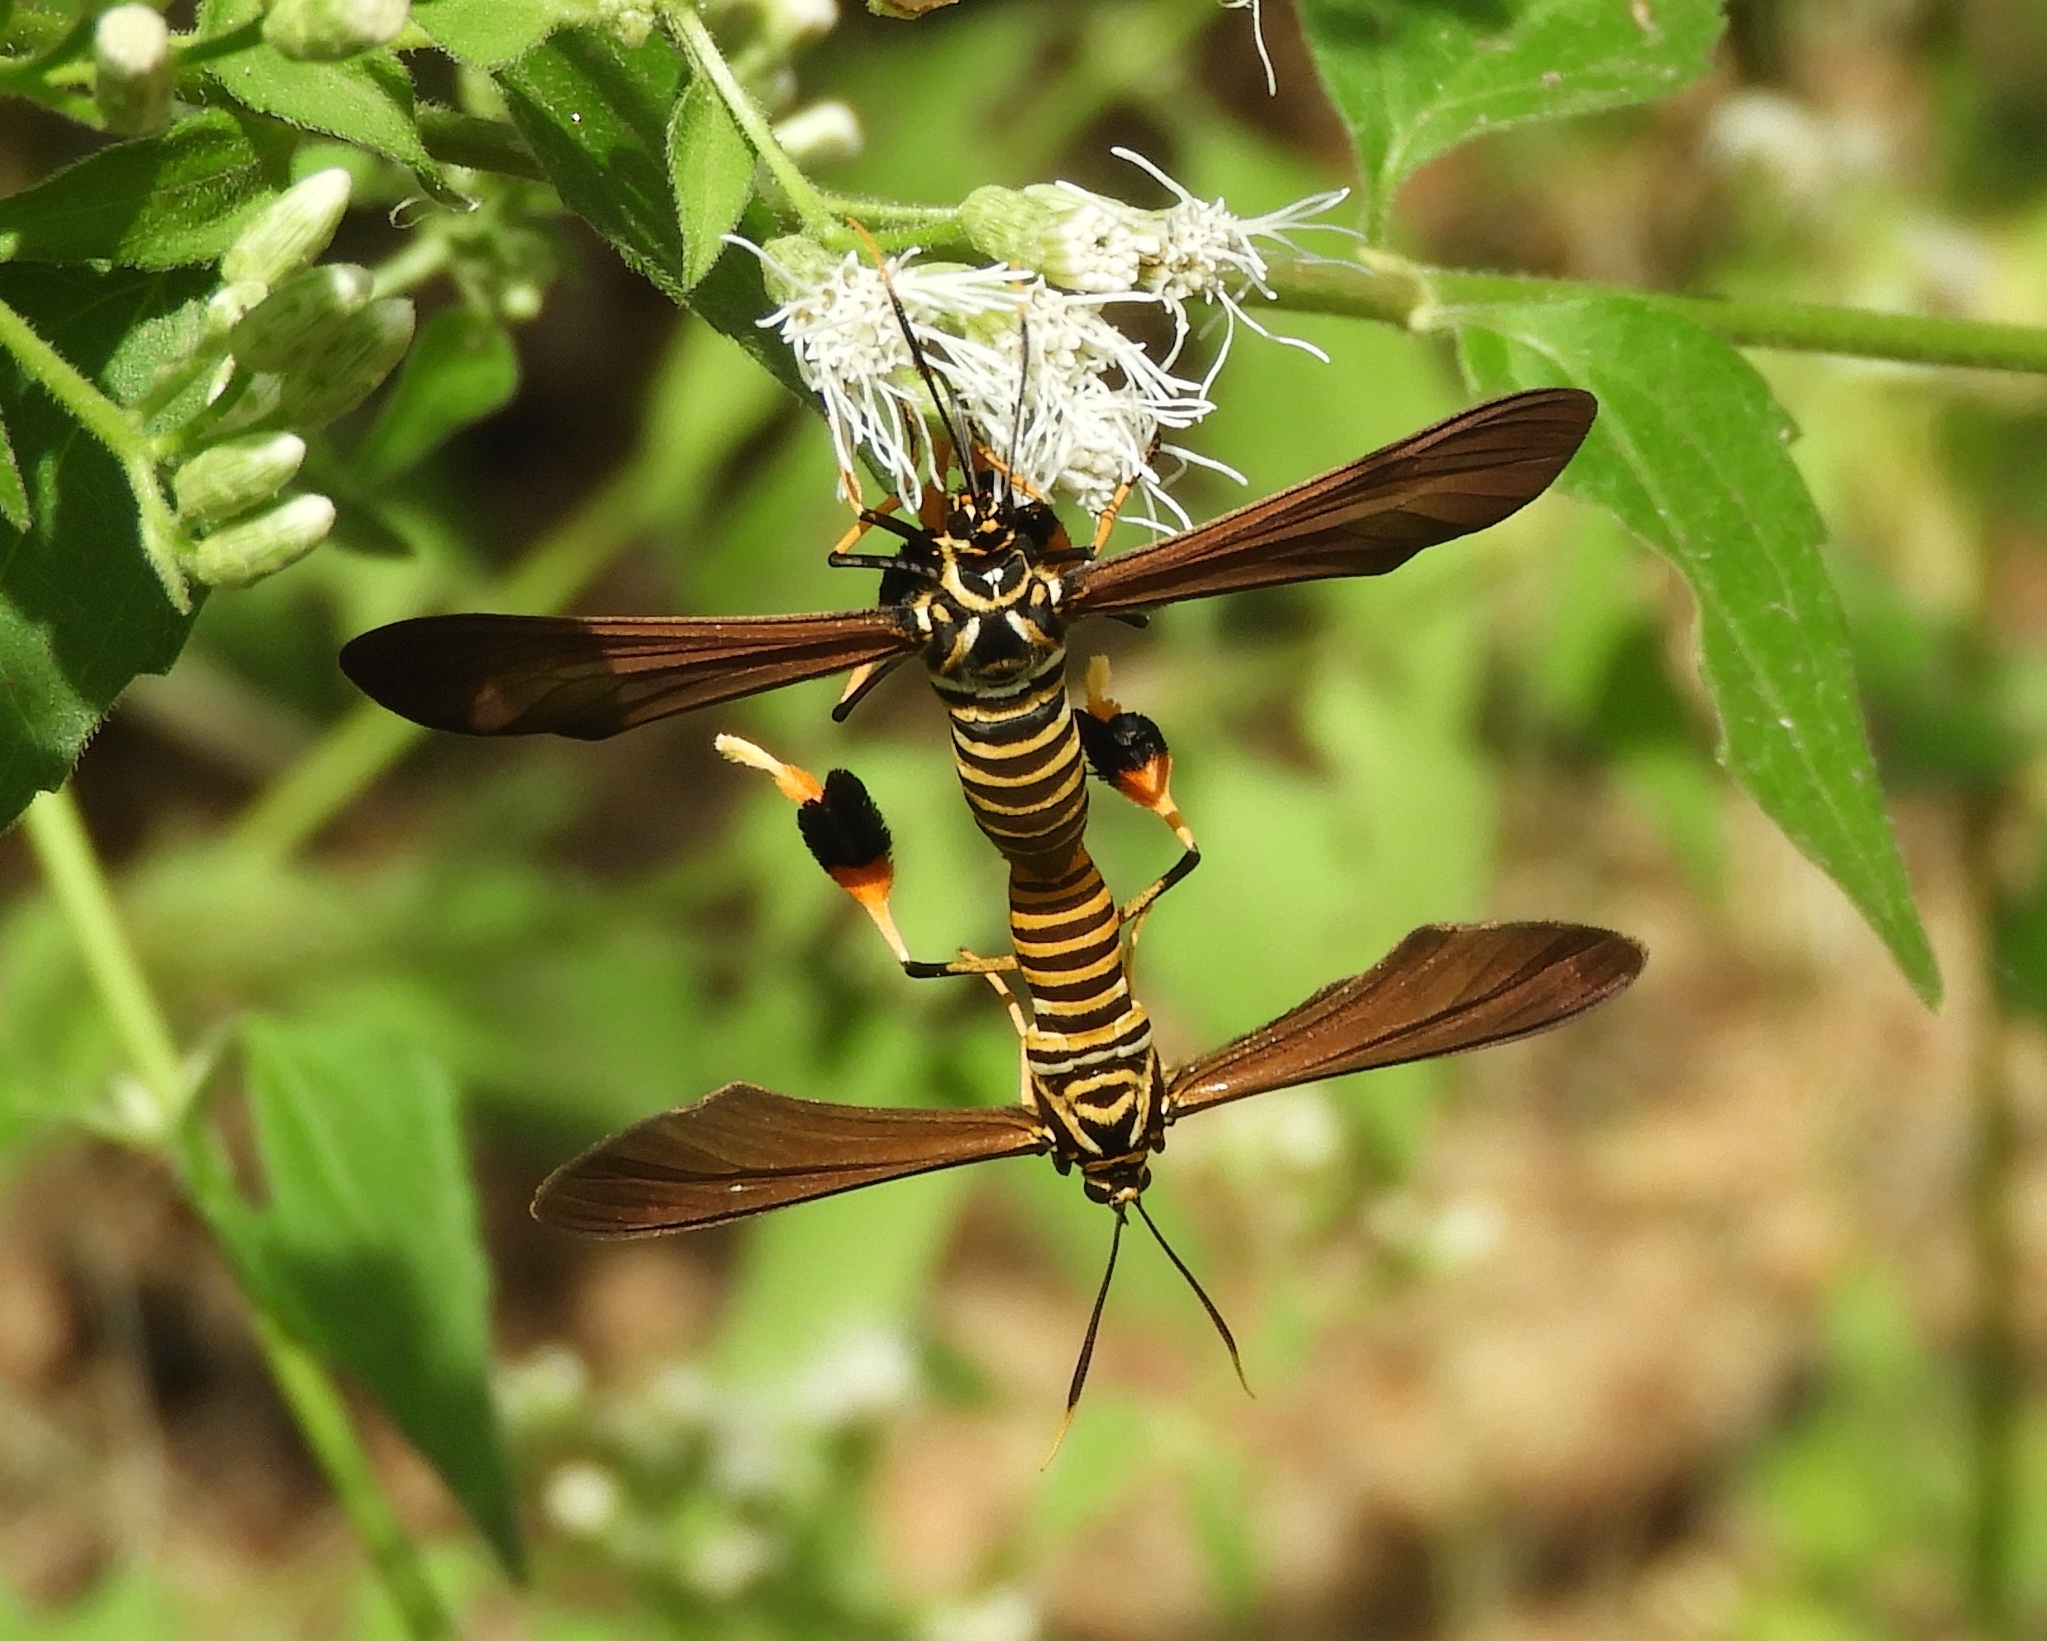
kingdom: Animalia
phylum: Arthropoda
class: Insecta
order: Lepidoptera
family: Erebidae
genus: Horama
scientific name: Horama panthalon
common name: Texas wasp moth
